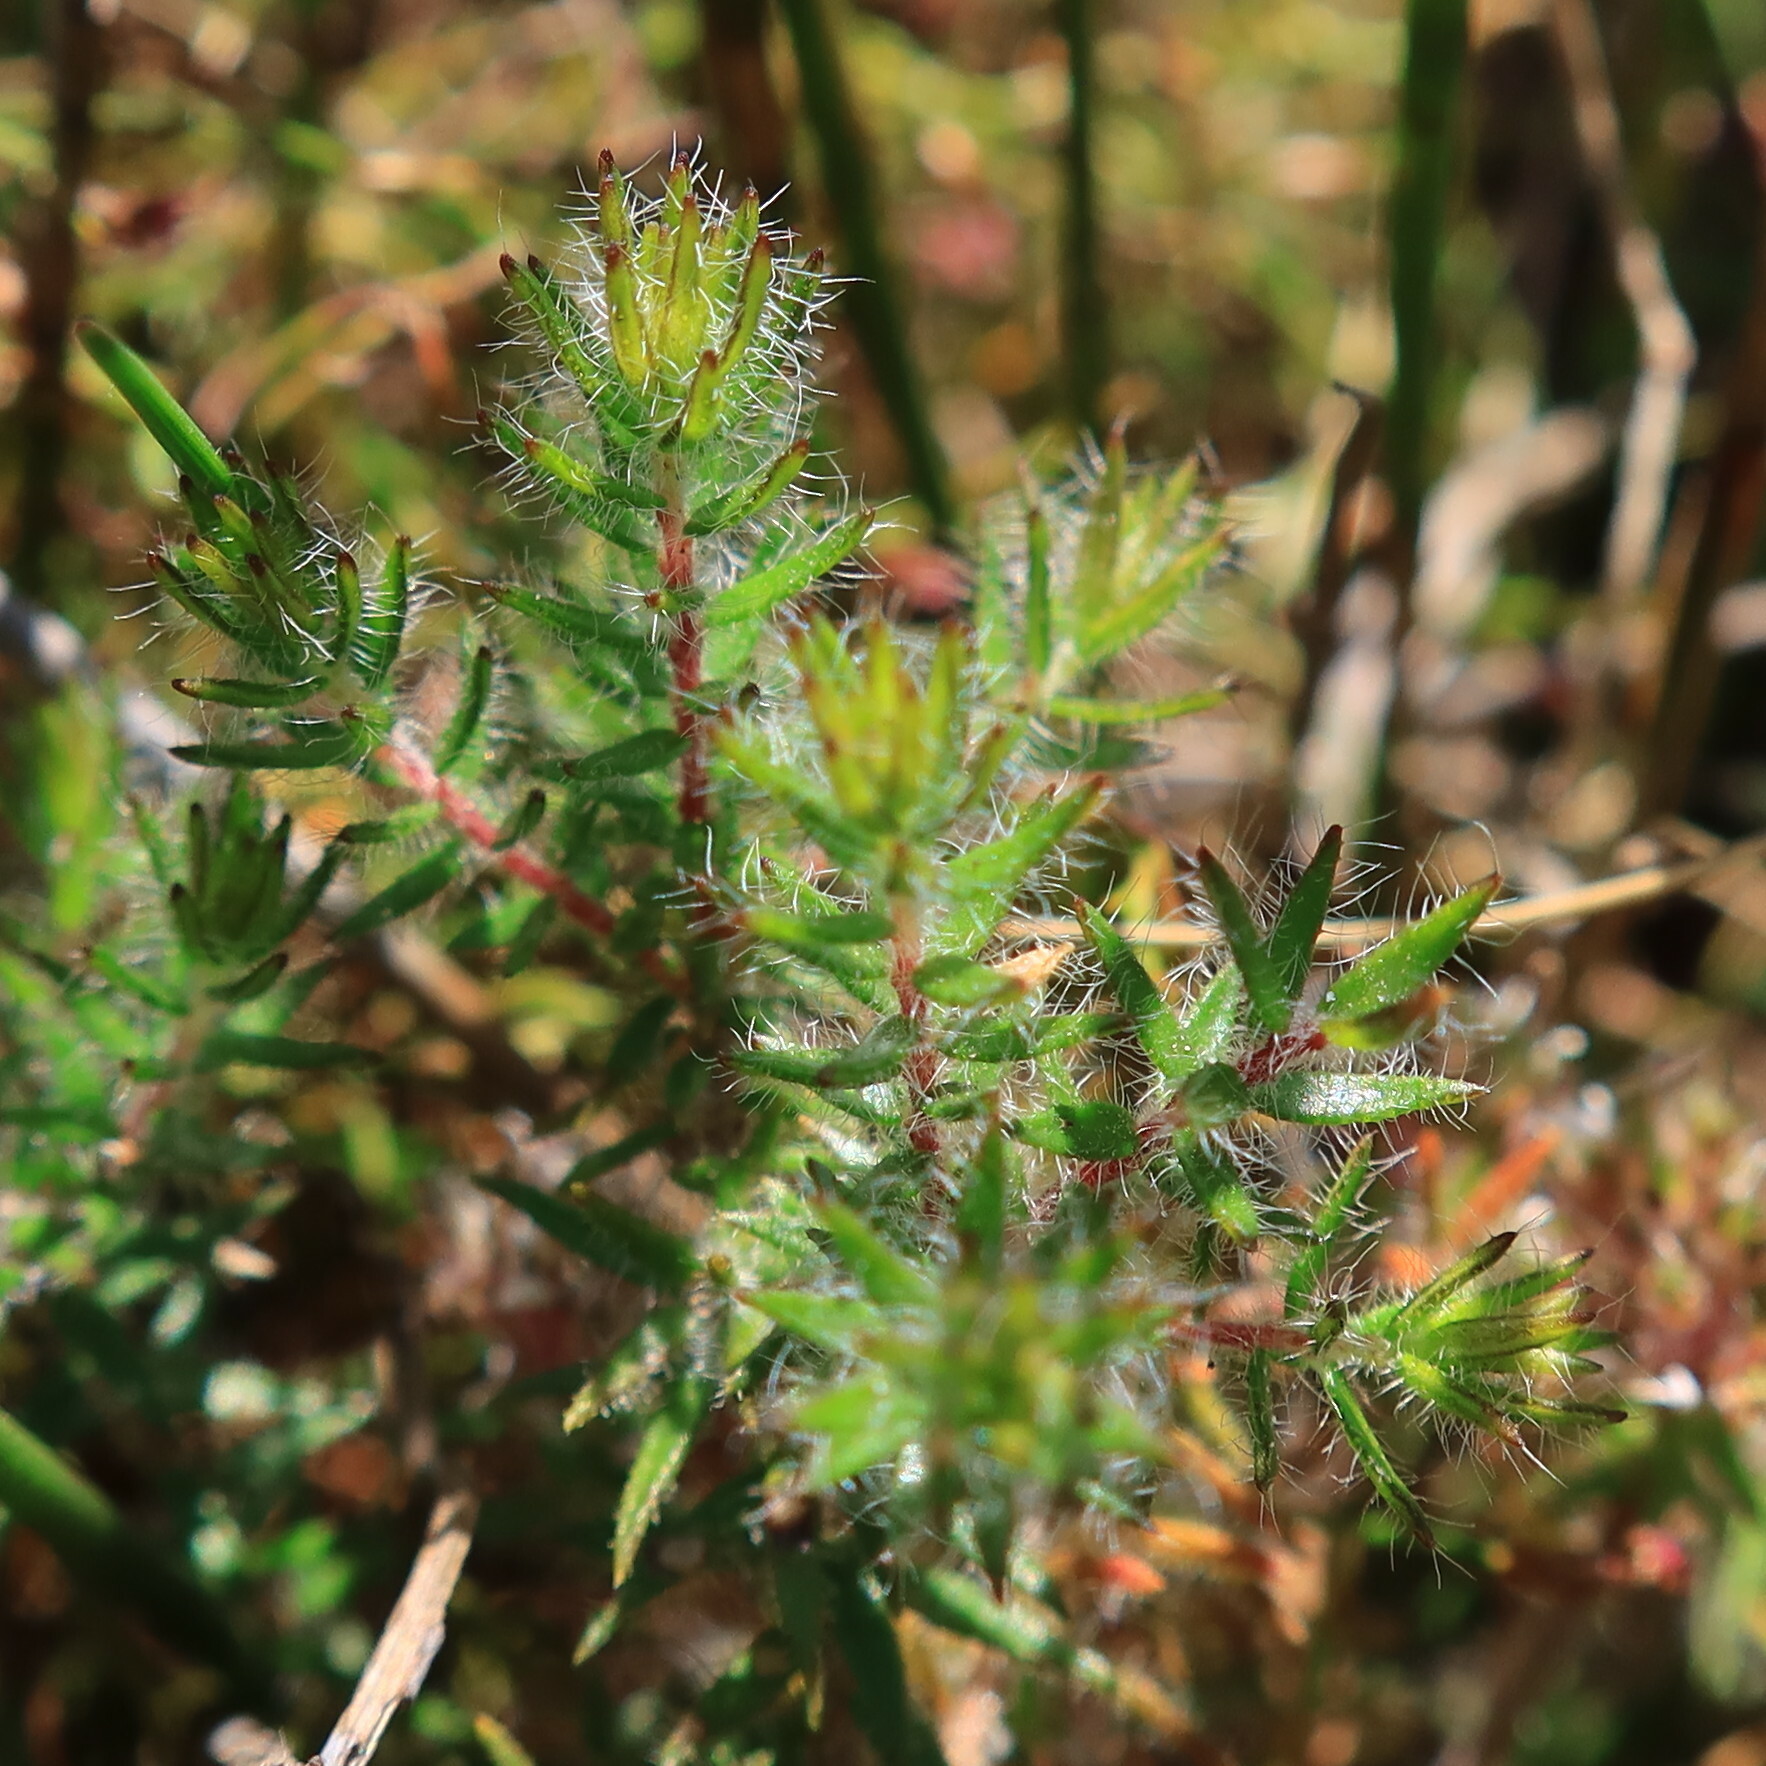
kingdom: Plantae
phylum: Tracheophyta
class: Magnoliopsida
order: Sapindales
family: Rutaceae
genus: Agathosma
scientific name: Agathosma serpyllacea
